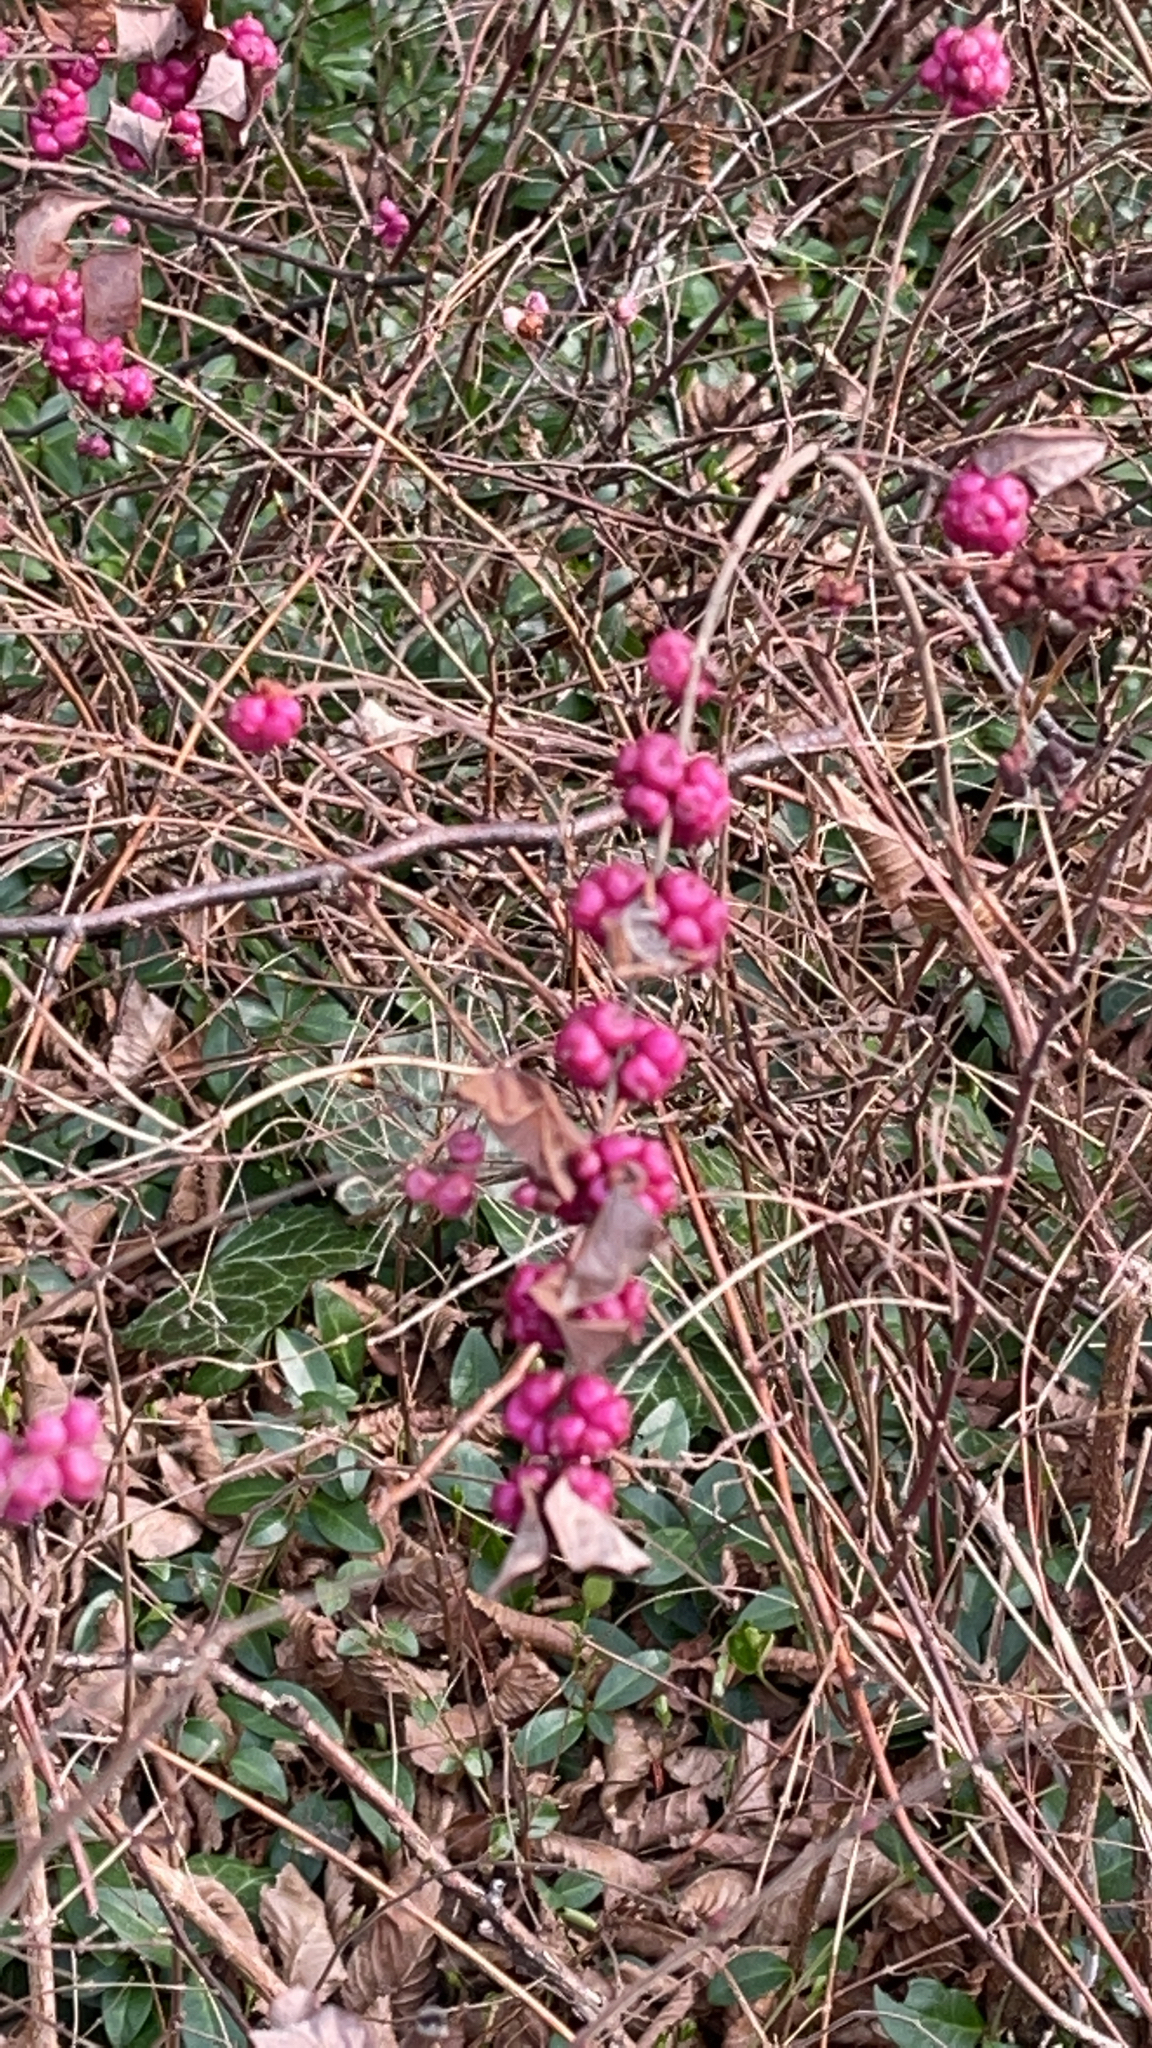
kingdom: Plantae
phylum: Tracheophyta
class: Magnoliopsida
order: Dipsacales
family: Caprifoliaceae
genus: Symphoricarpos
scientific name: Symphoricarpos orbiculatus
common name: Coralberry
